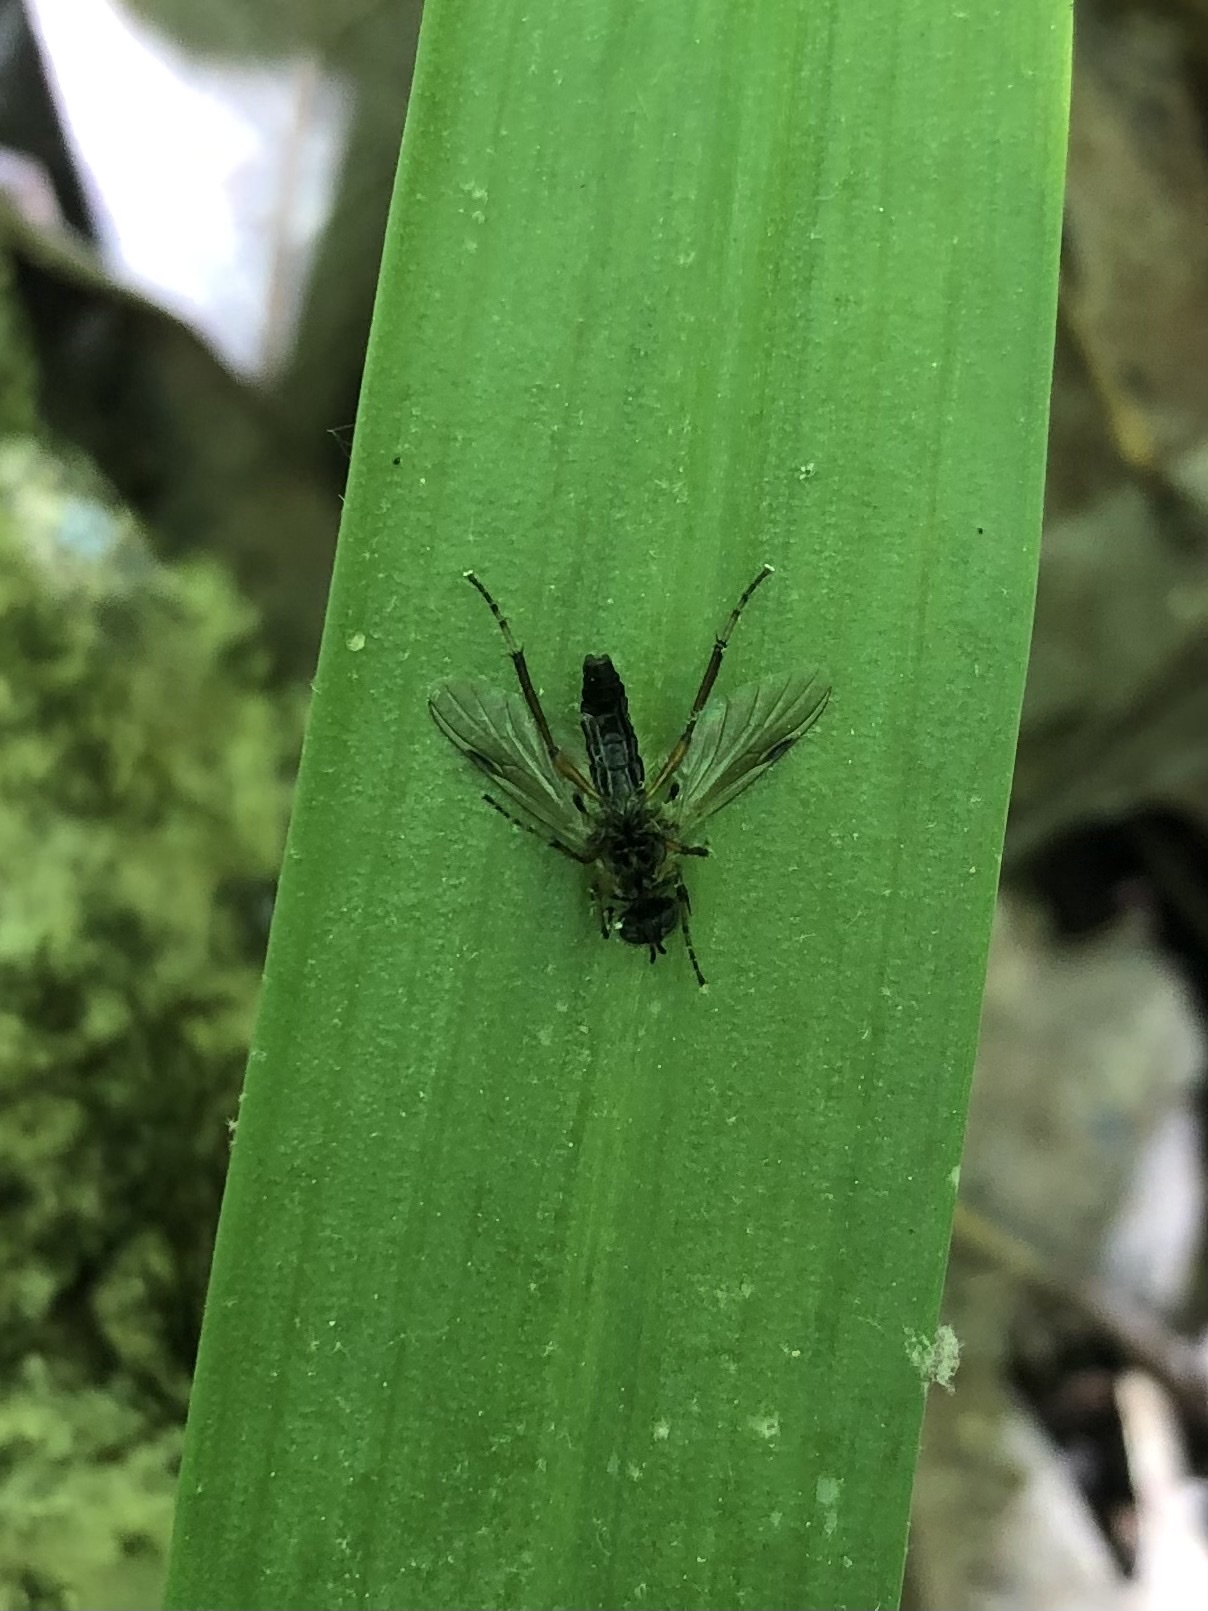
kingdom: Animalia
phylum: Arthropoda
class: Insecta
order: Diptera
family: Bibionidae
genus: Bibio
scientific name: Bibio
